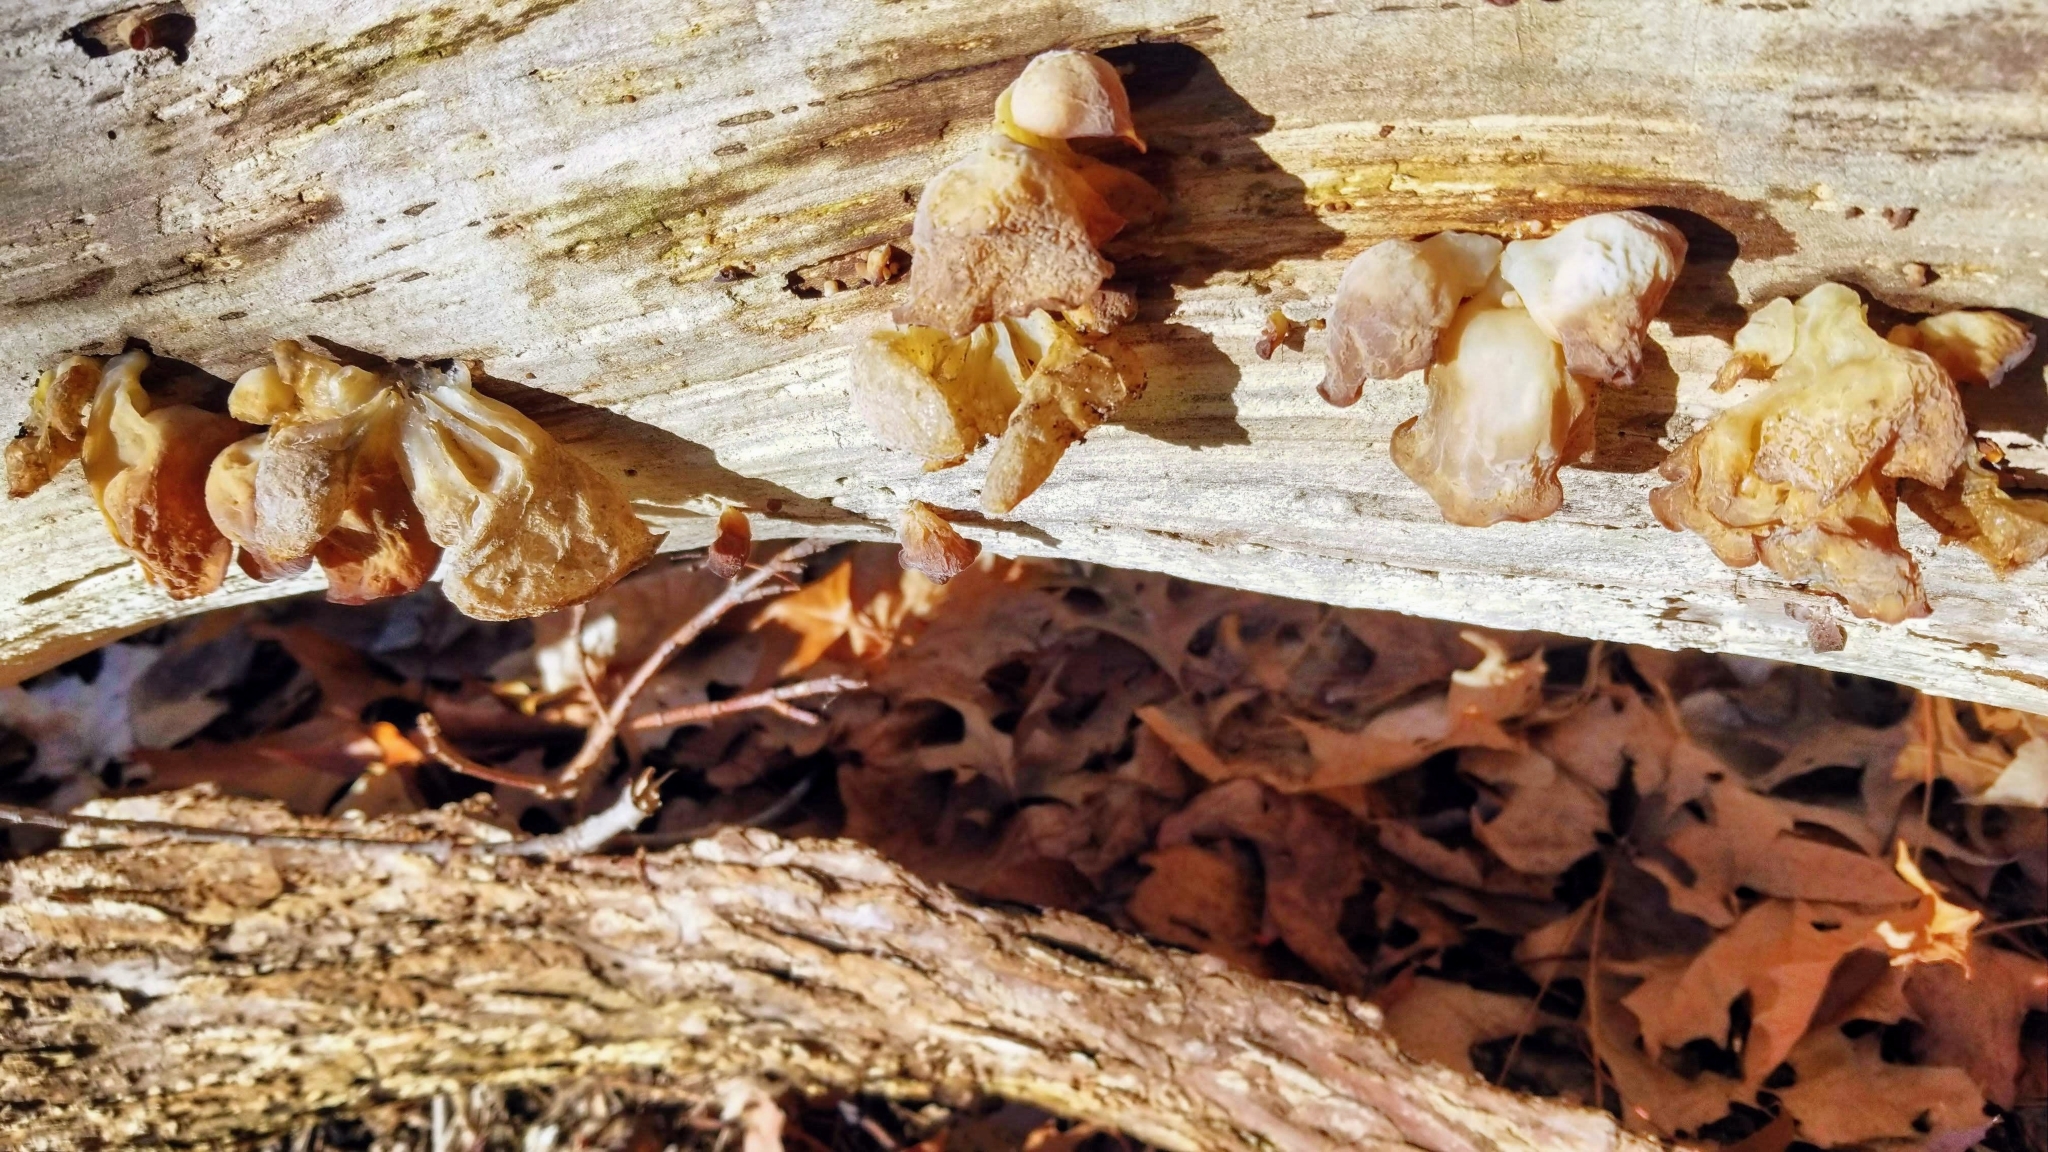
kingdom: Fungi
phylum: Basidiomycota
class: Agaricomycetes
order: Auriculariales
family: Auriculariaceae
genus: Auricularia
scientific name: Auricularia americana
